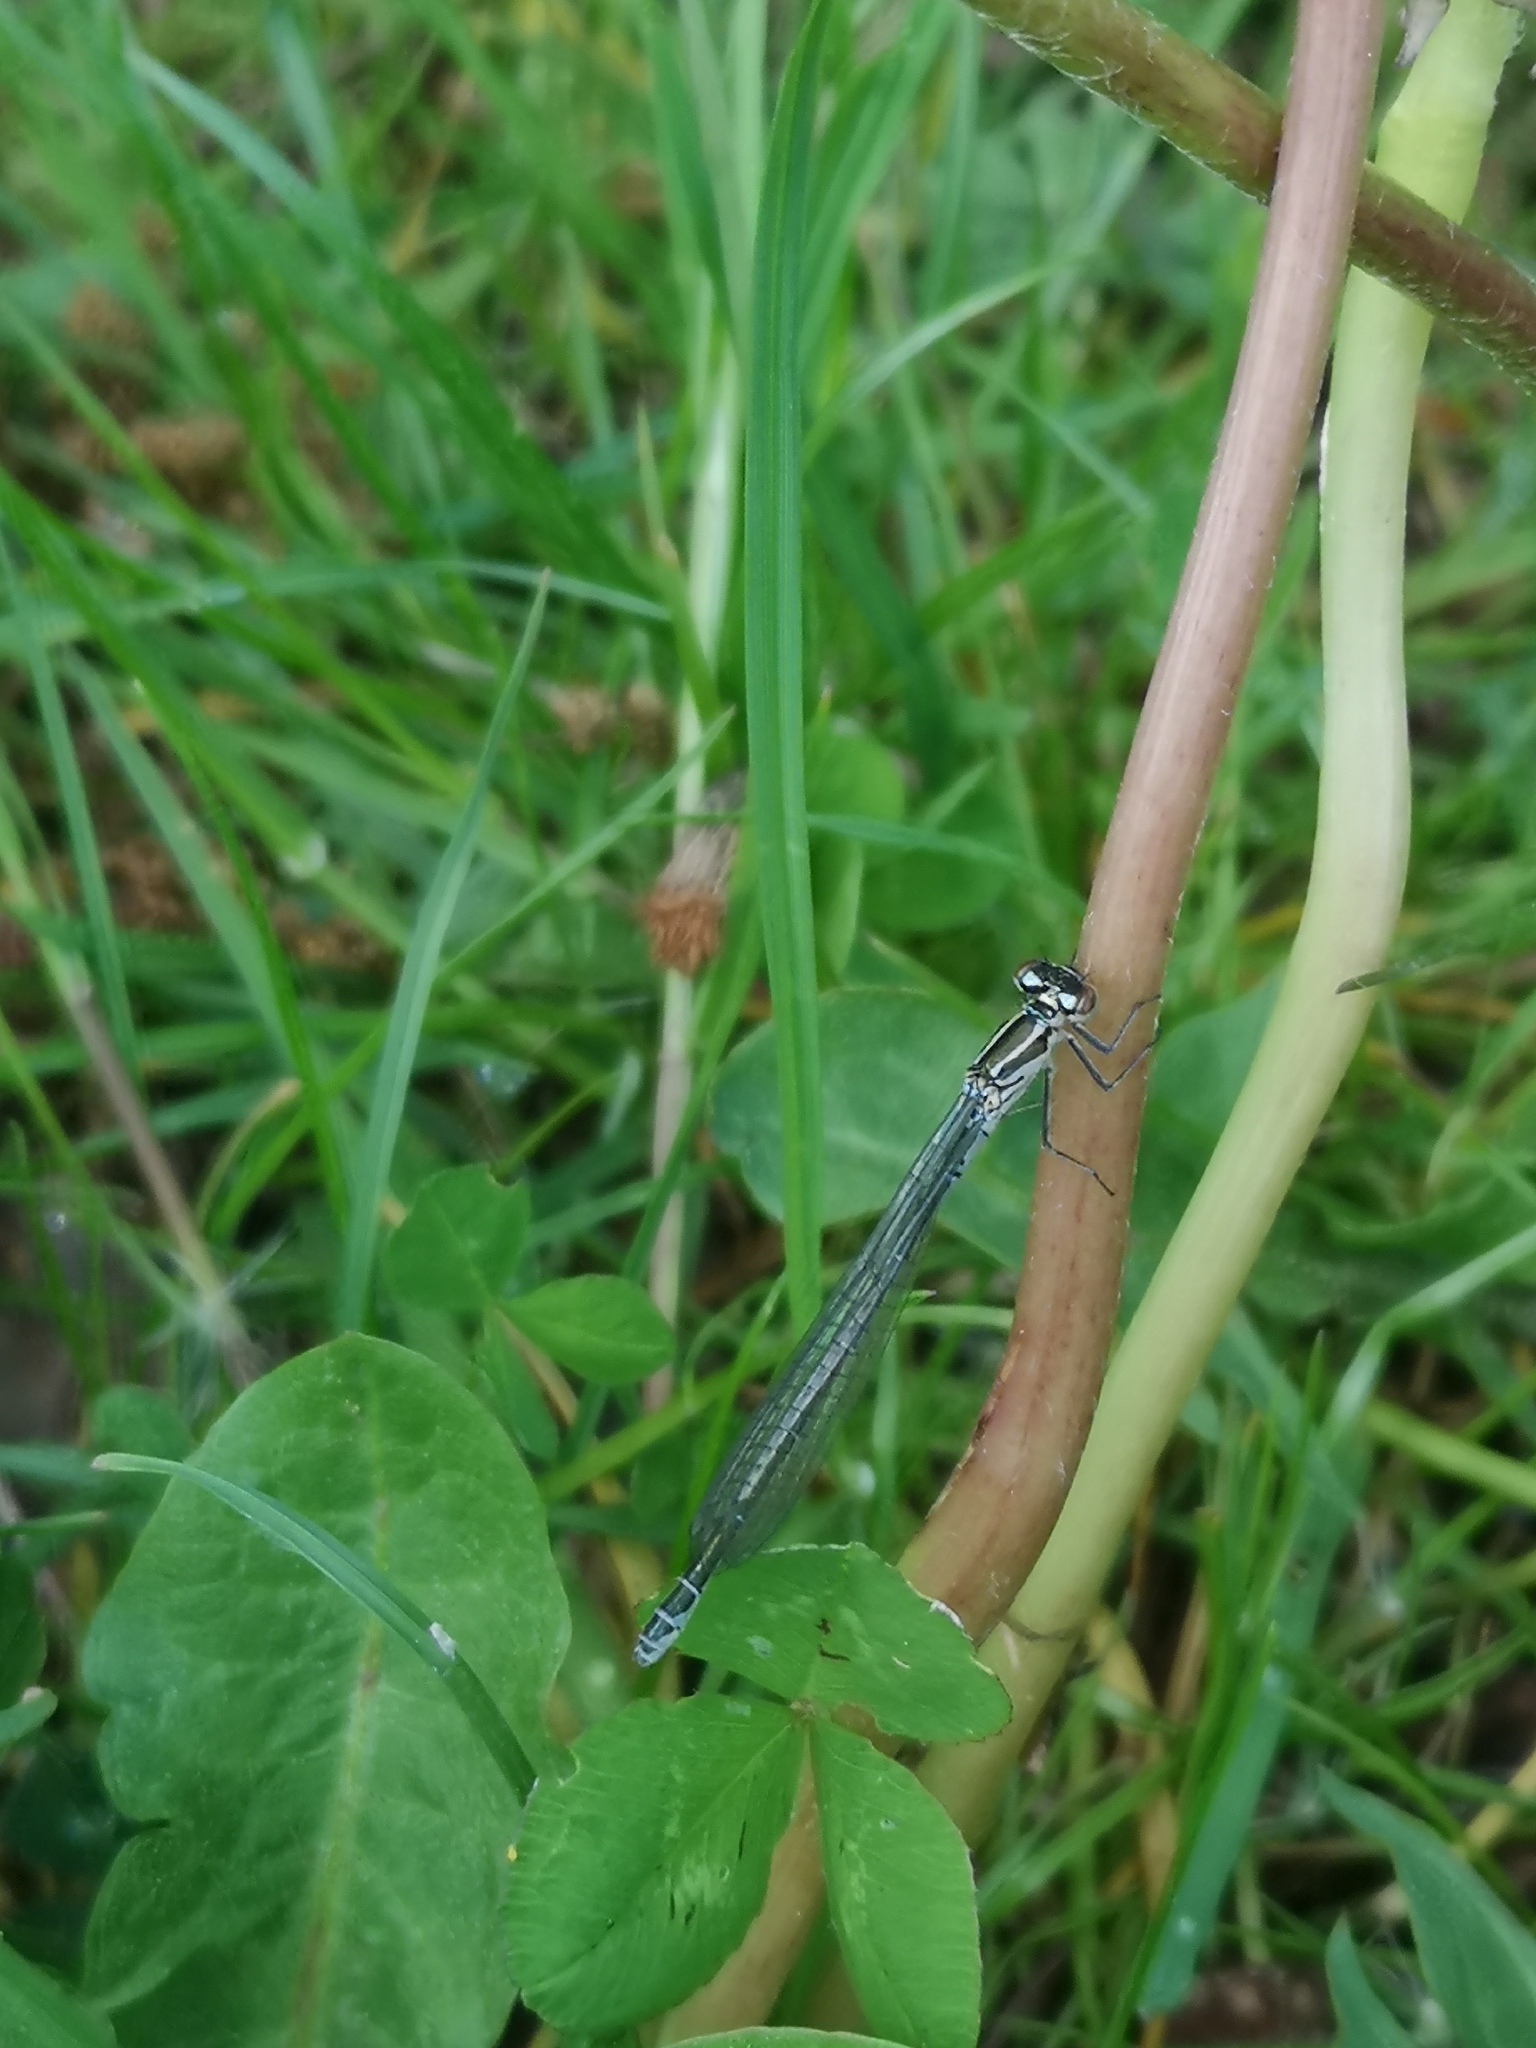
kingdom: Animalia
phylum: Arthropoda
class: Insecta
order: Odonata
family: Coenagrionidae
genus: Coenagrion
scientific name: Coenagrion puella
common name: Azure damselfly
